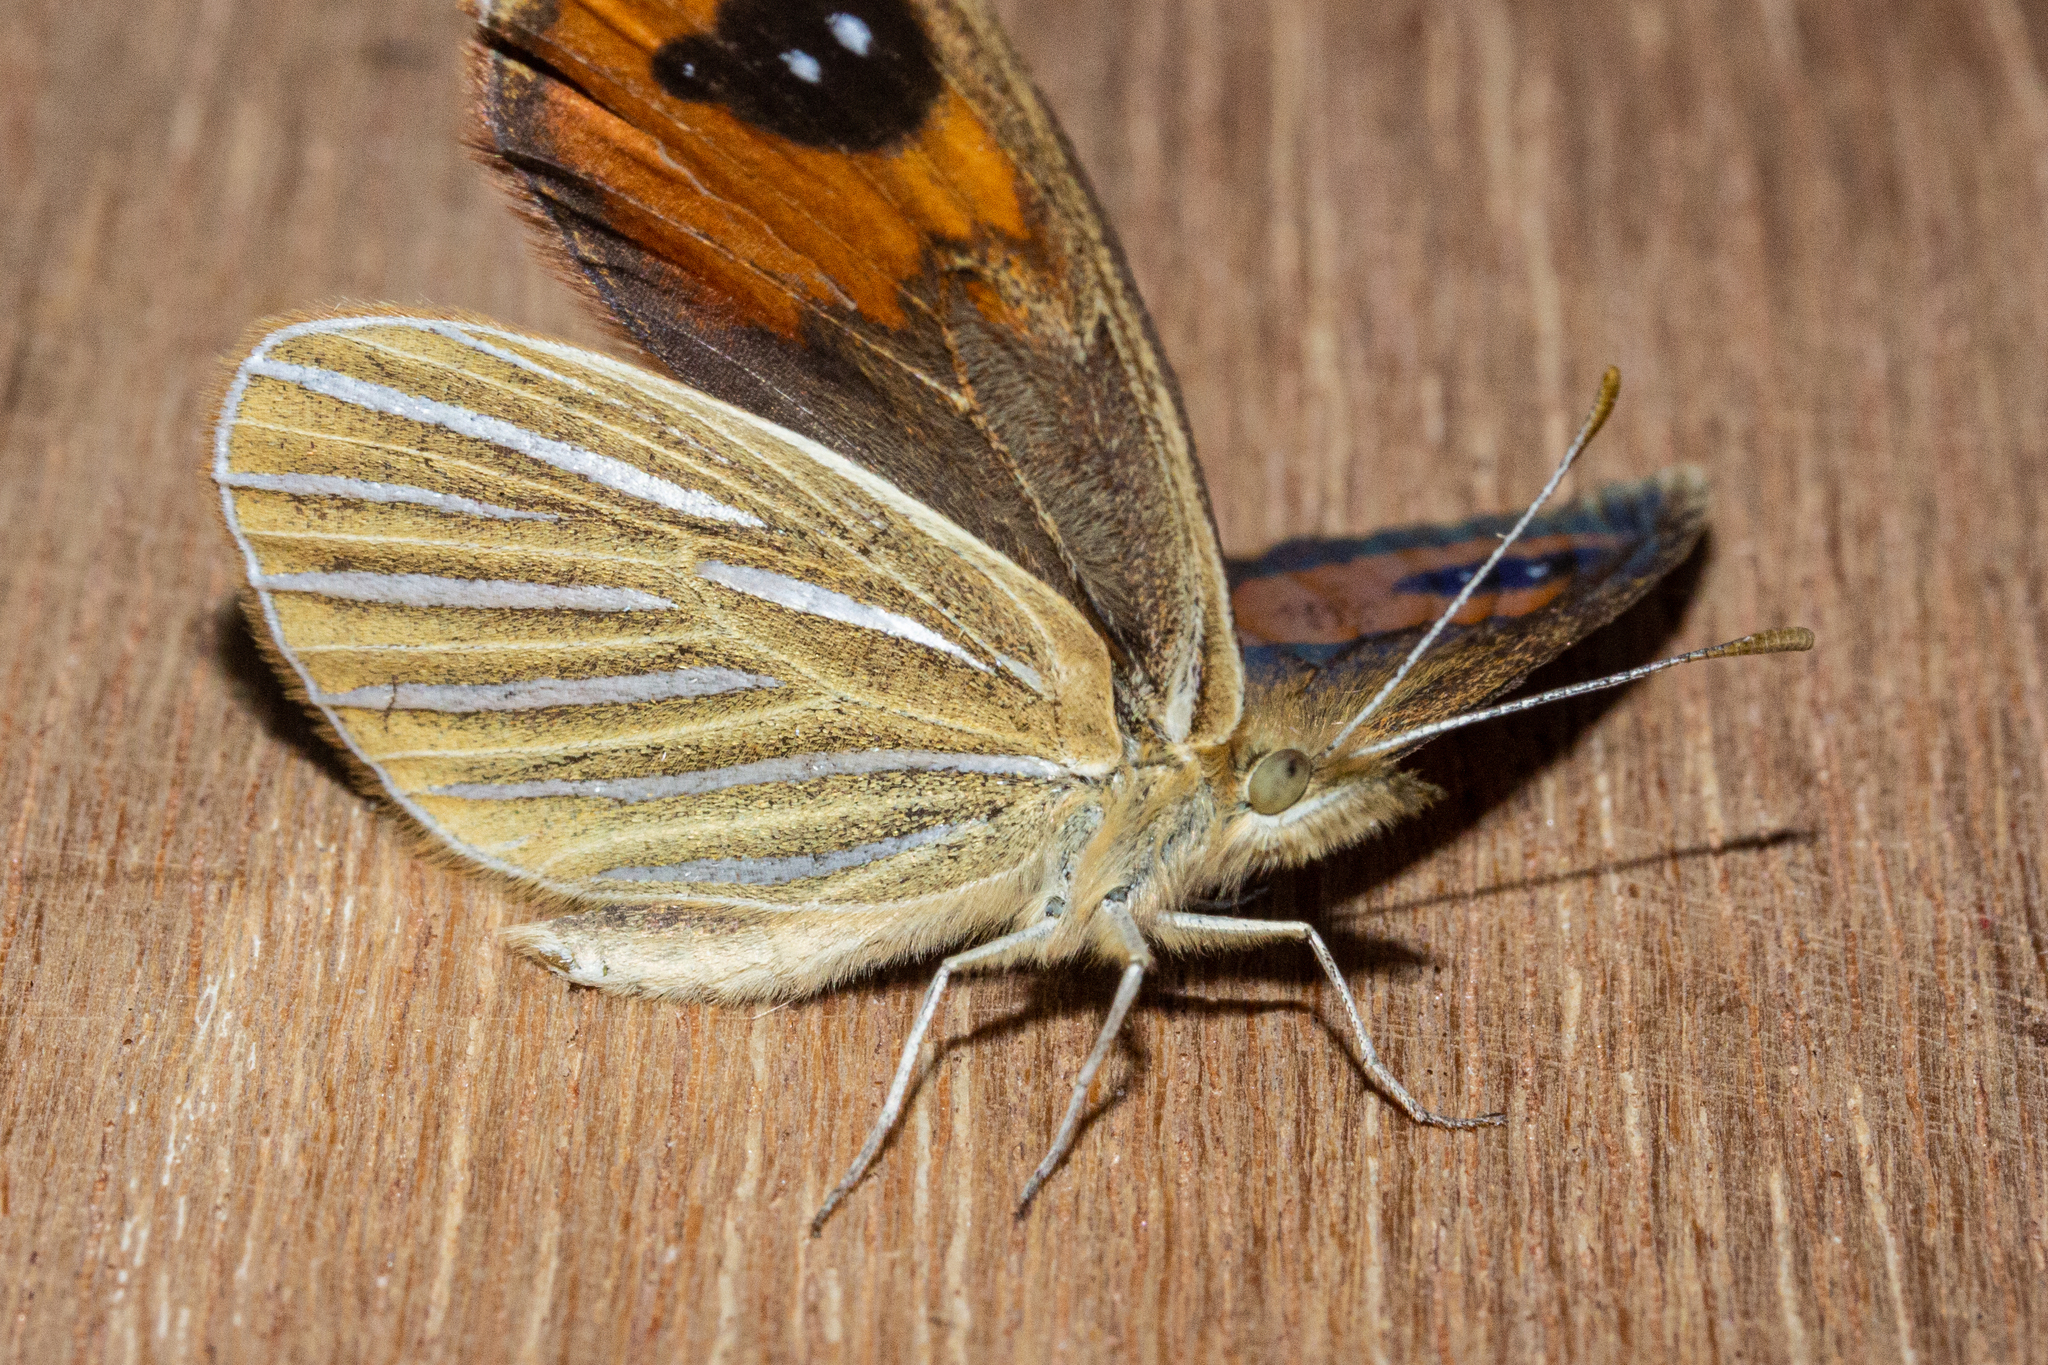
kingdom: Animalia
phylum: Arthropoda
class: Insecta
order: Lepidoptera
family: Nymphalidae
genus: Argyrophenga
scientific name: Argyrophenga antipodum
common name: Common tussock butterfly
